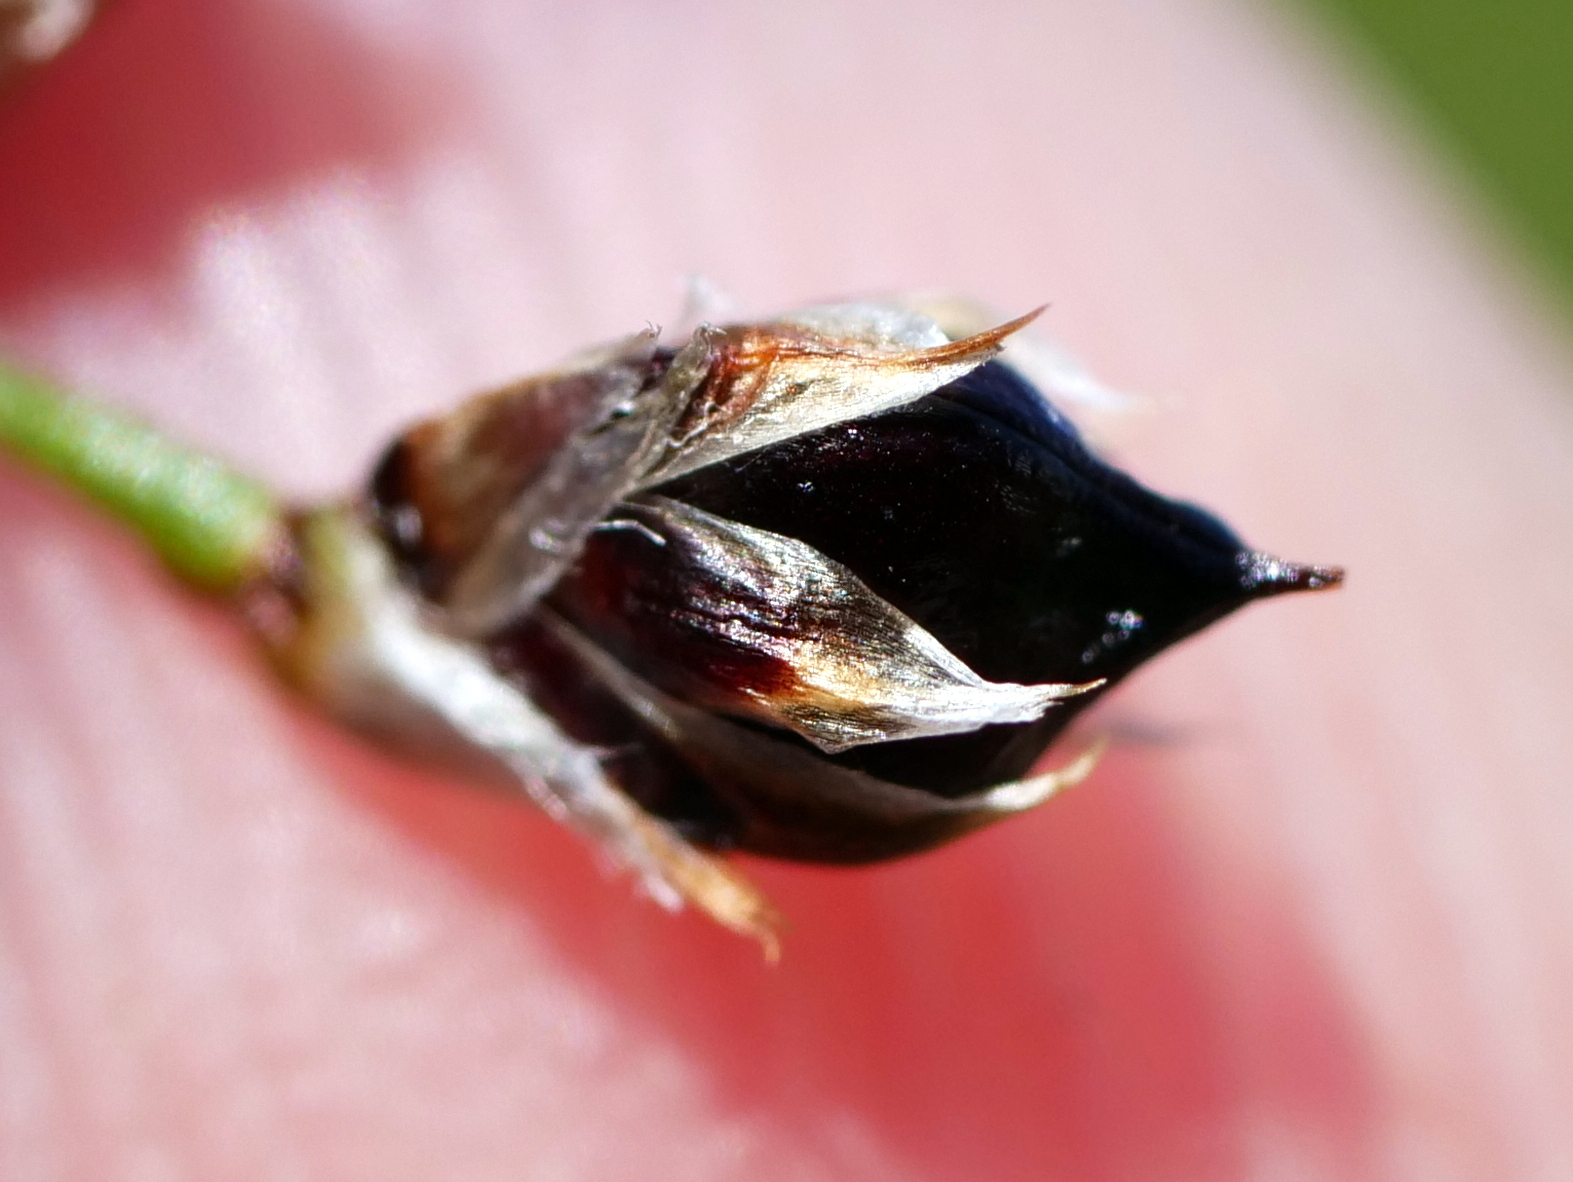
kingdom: Plantae
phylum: Tracheophyta
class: Liliopsida
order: Poales
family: Juncaceae
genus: Luzula
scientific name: Luzula sylvatica
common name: Great wood-rush
